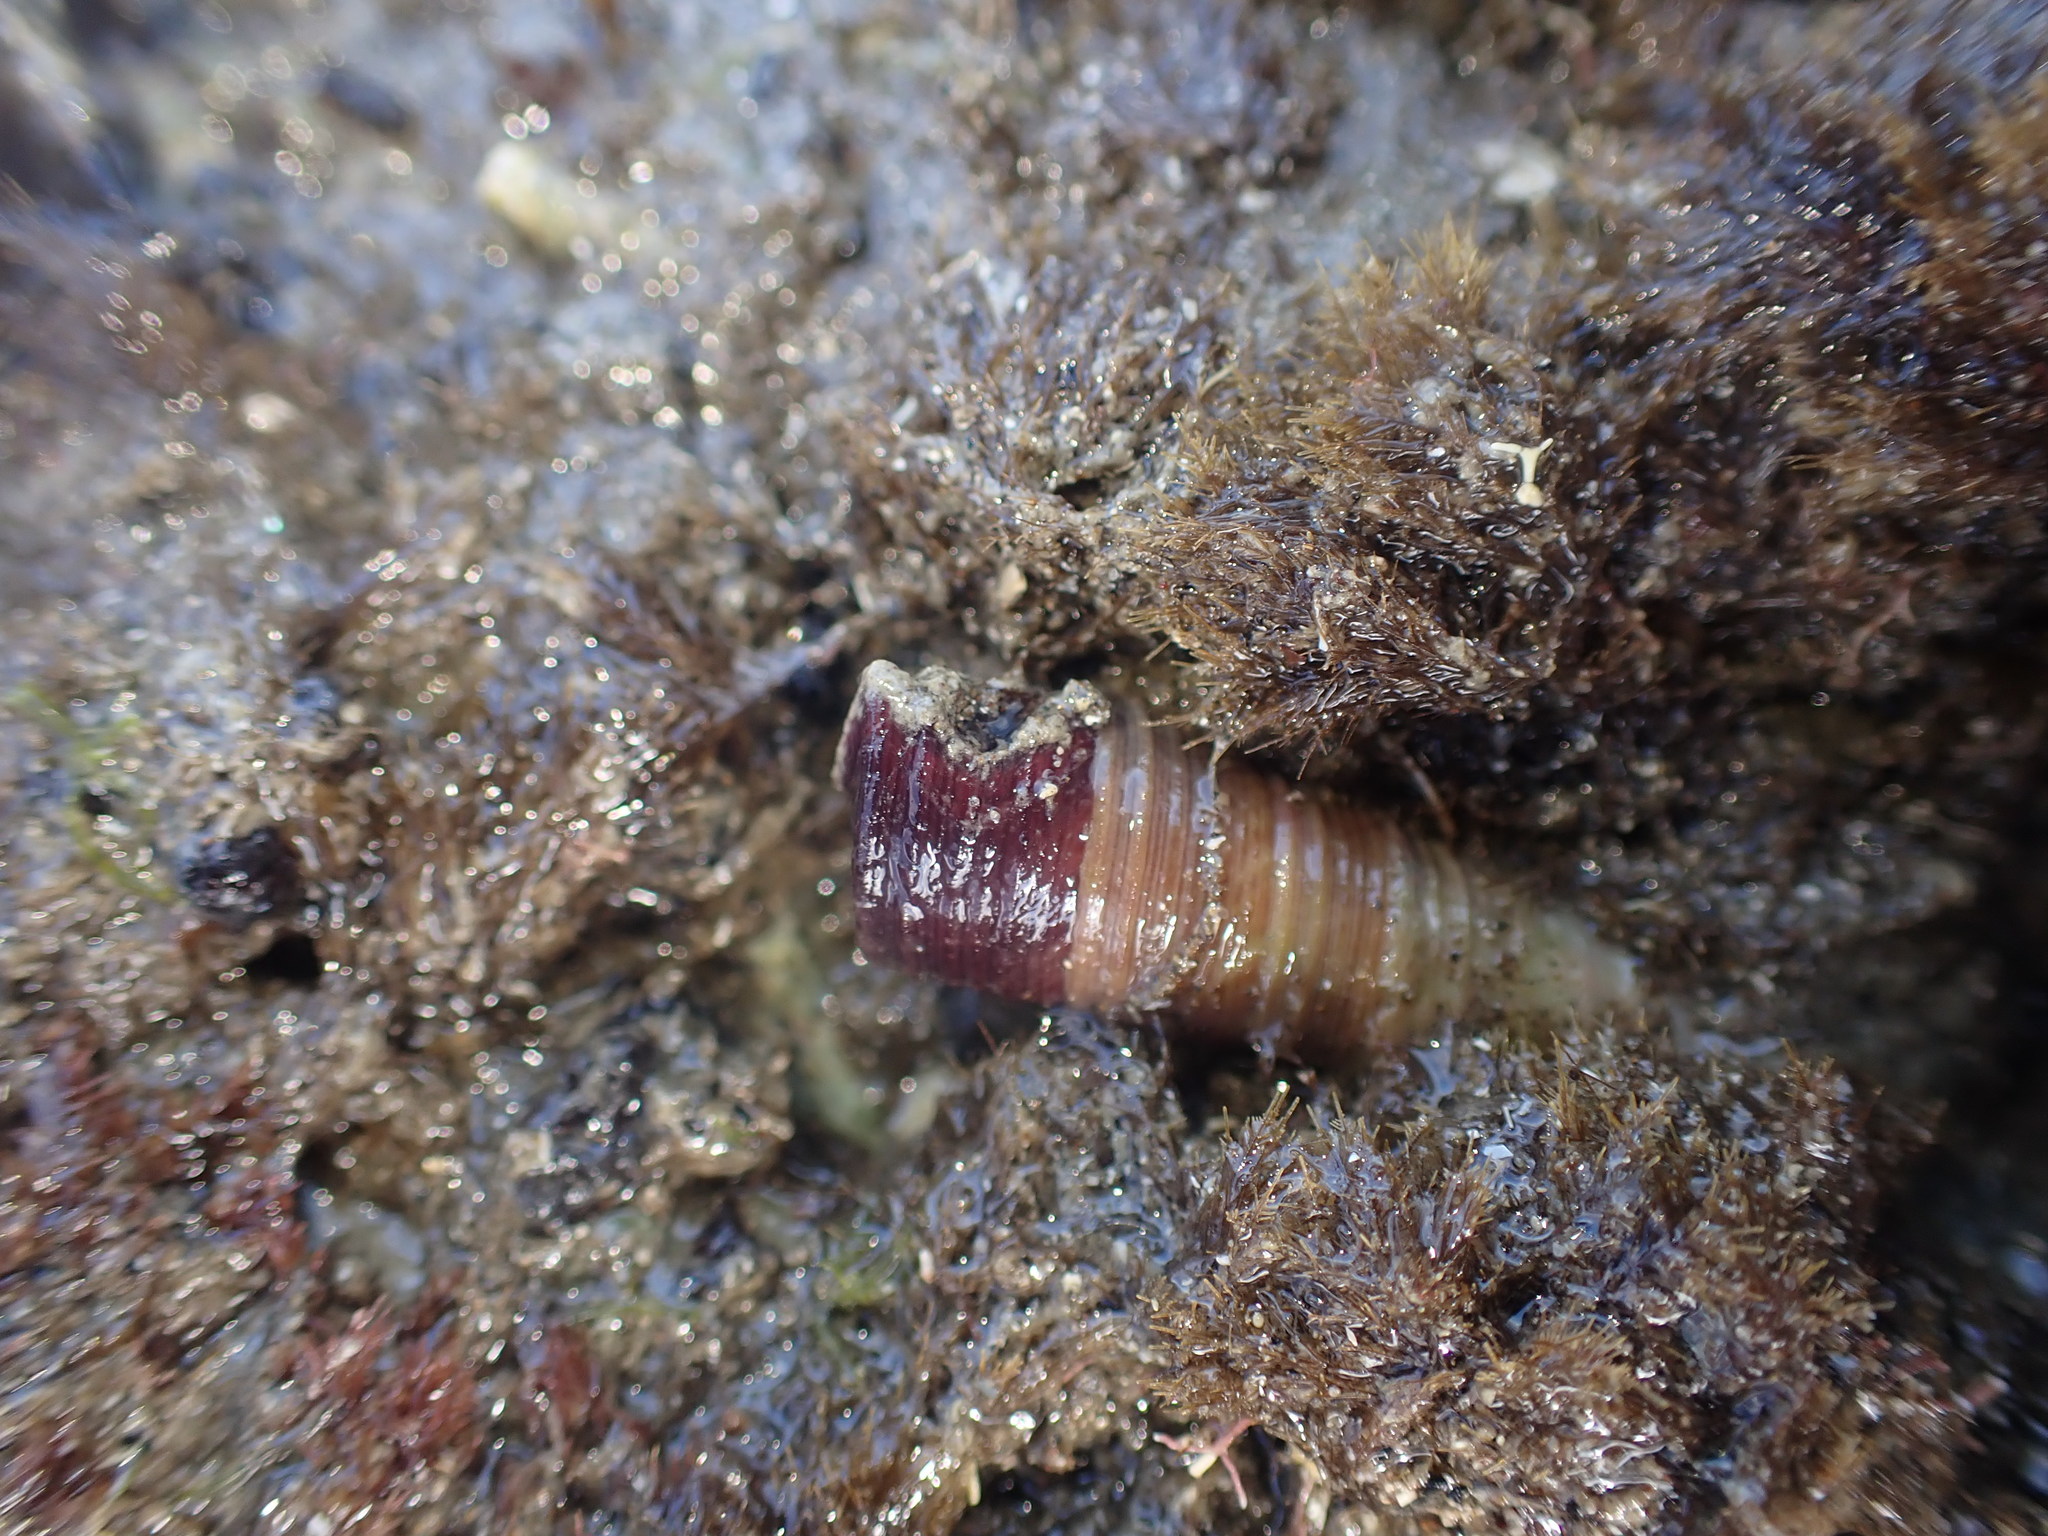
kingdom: Animalia
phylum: Mollusca
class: Gastropoda
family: Turritellidae
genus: Maoricolpus
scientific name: Maoricolpus roseus
